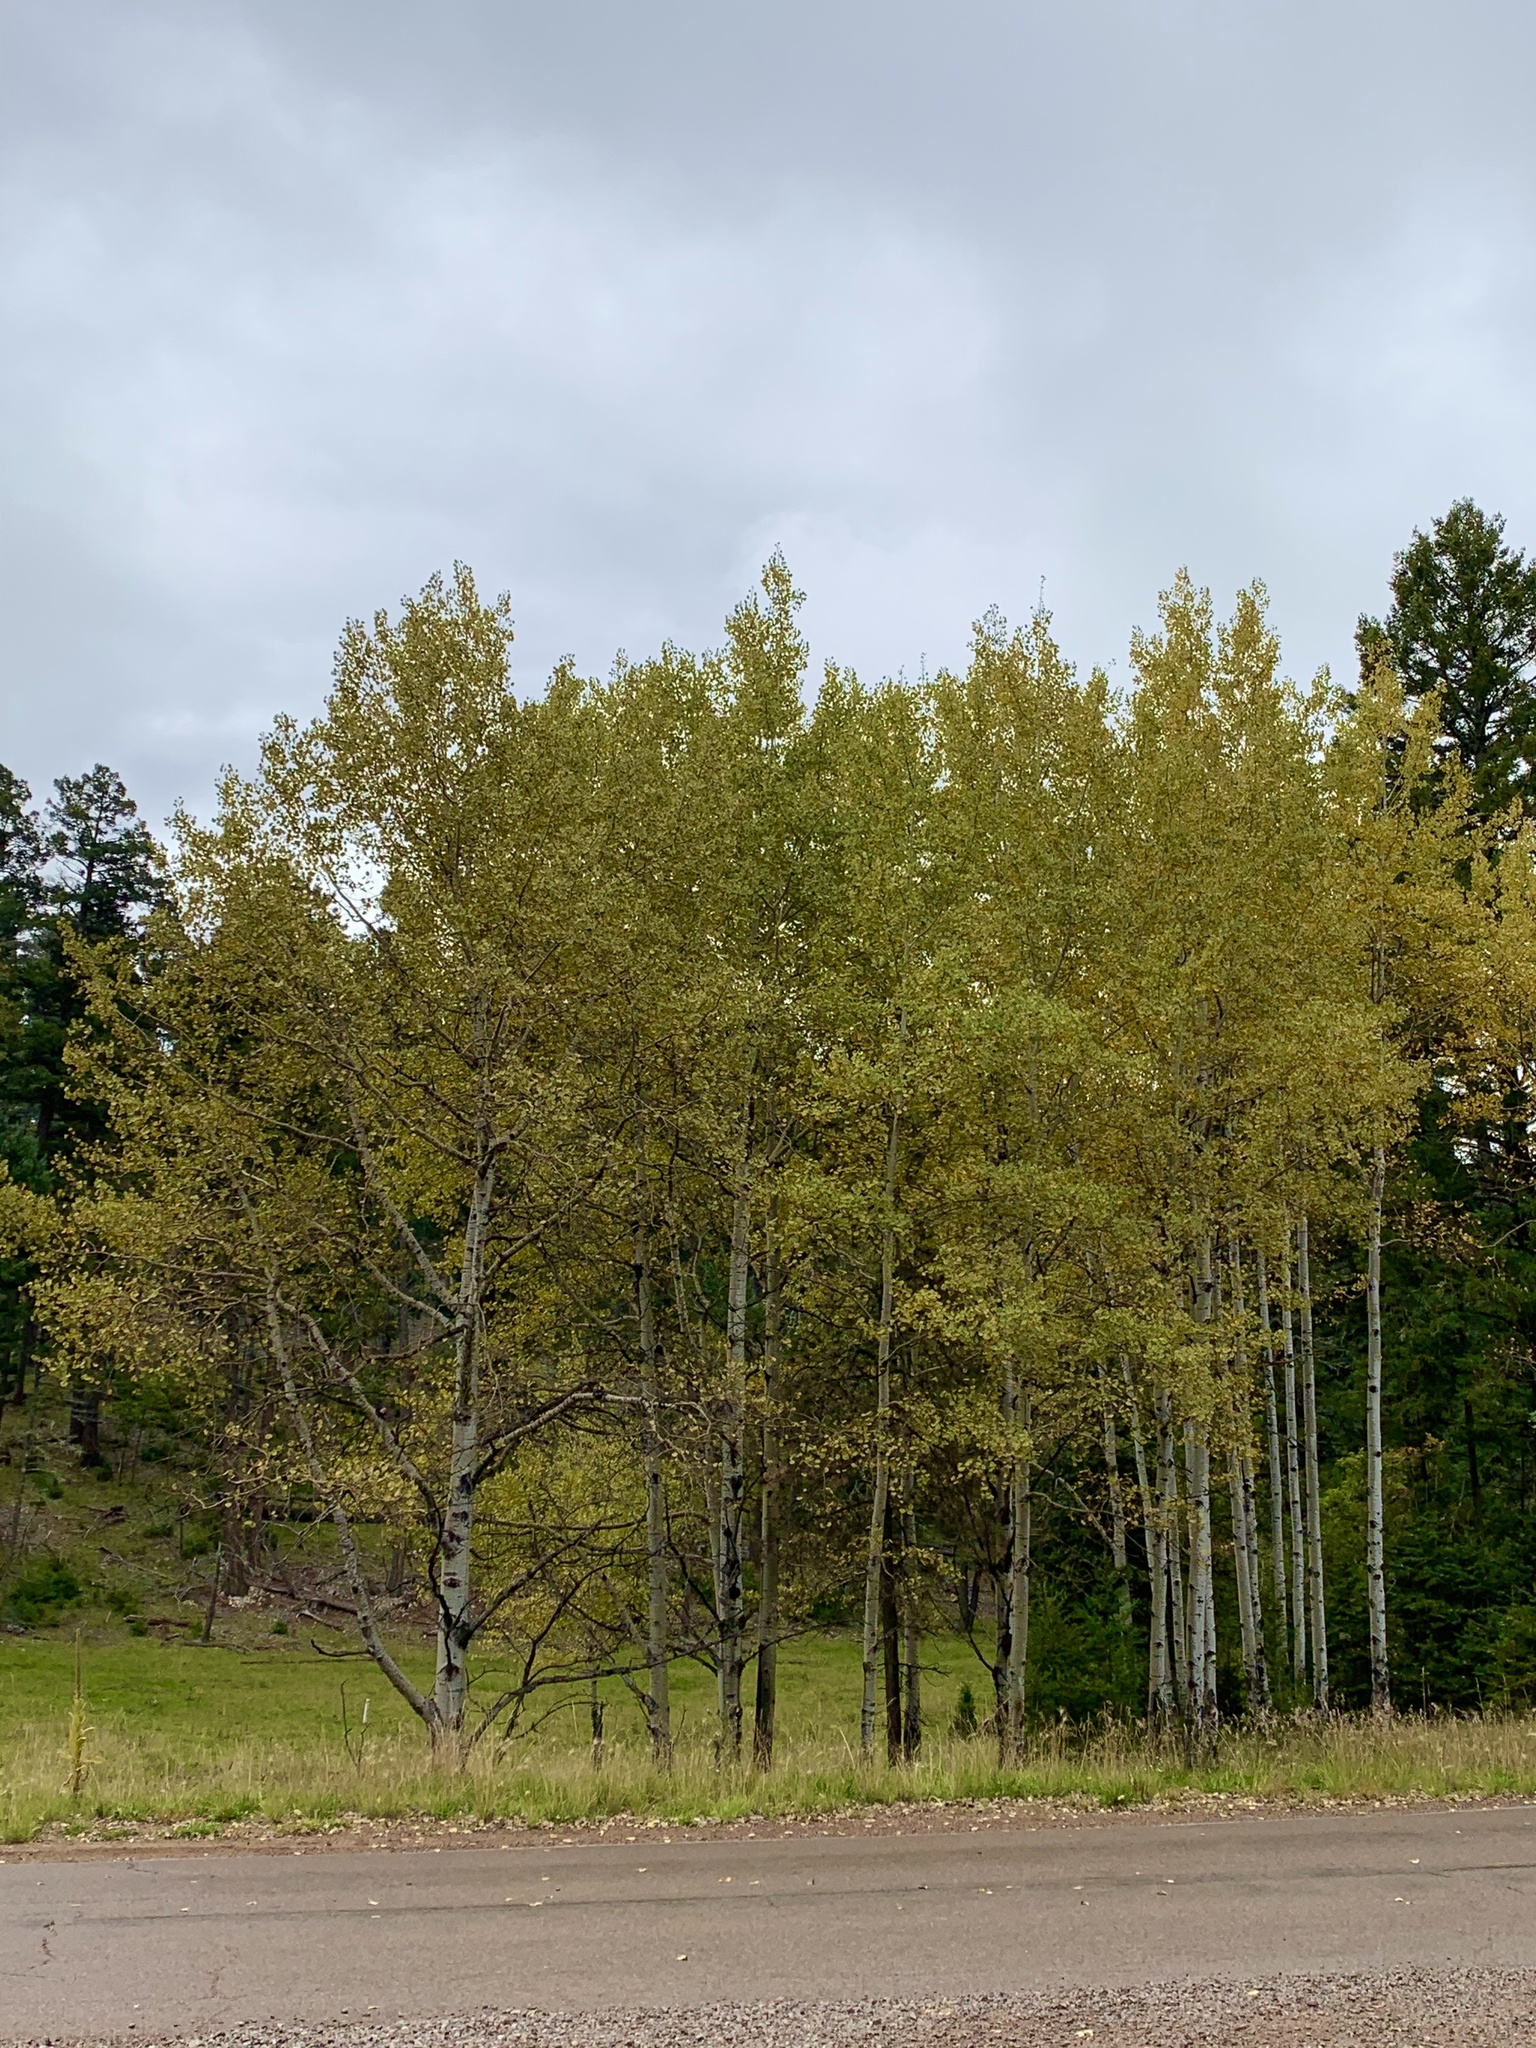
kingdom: Plantae
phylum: Tracheophyta
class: Magnoliopsida
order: Malpighiales
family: Salicaceae
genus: Populus
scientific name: Populus tremuloides
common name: Quaking aspen
